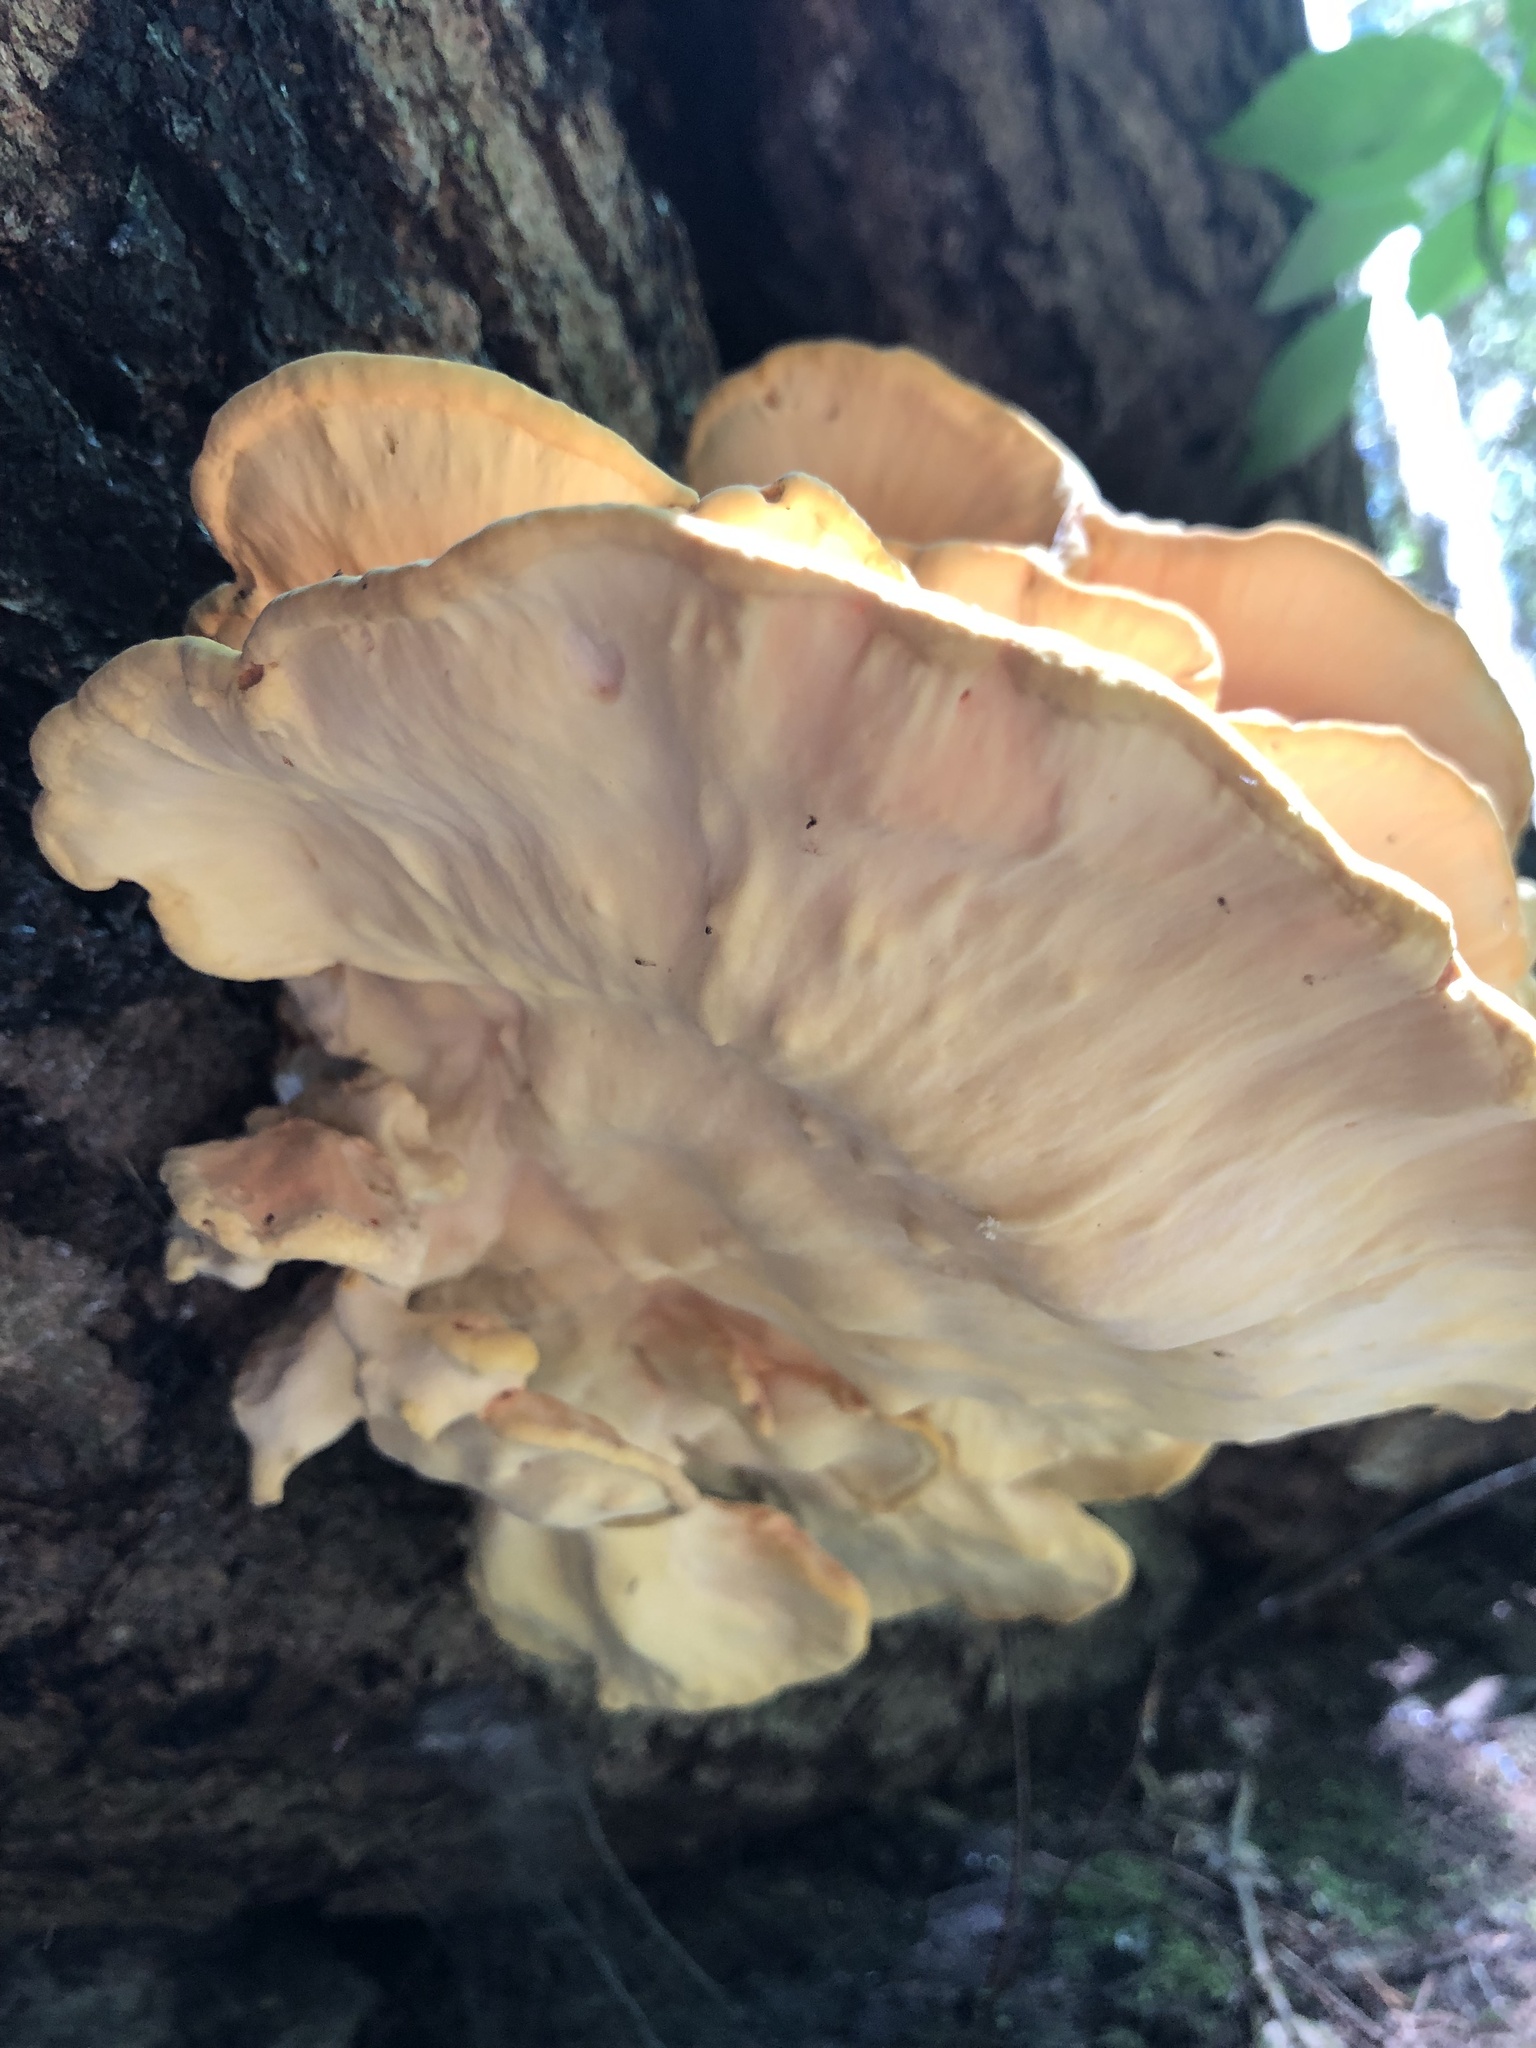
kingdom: Fungi
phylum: Basidiomycota
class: Agaricomycetes
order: Polyporales
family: Laetiporaceae
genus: Laetiporus
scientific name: Laetiporus sulphureus
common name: Chicken of the woods
